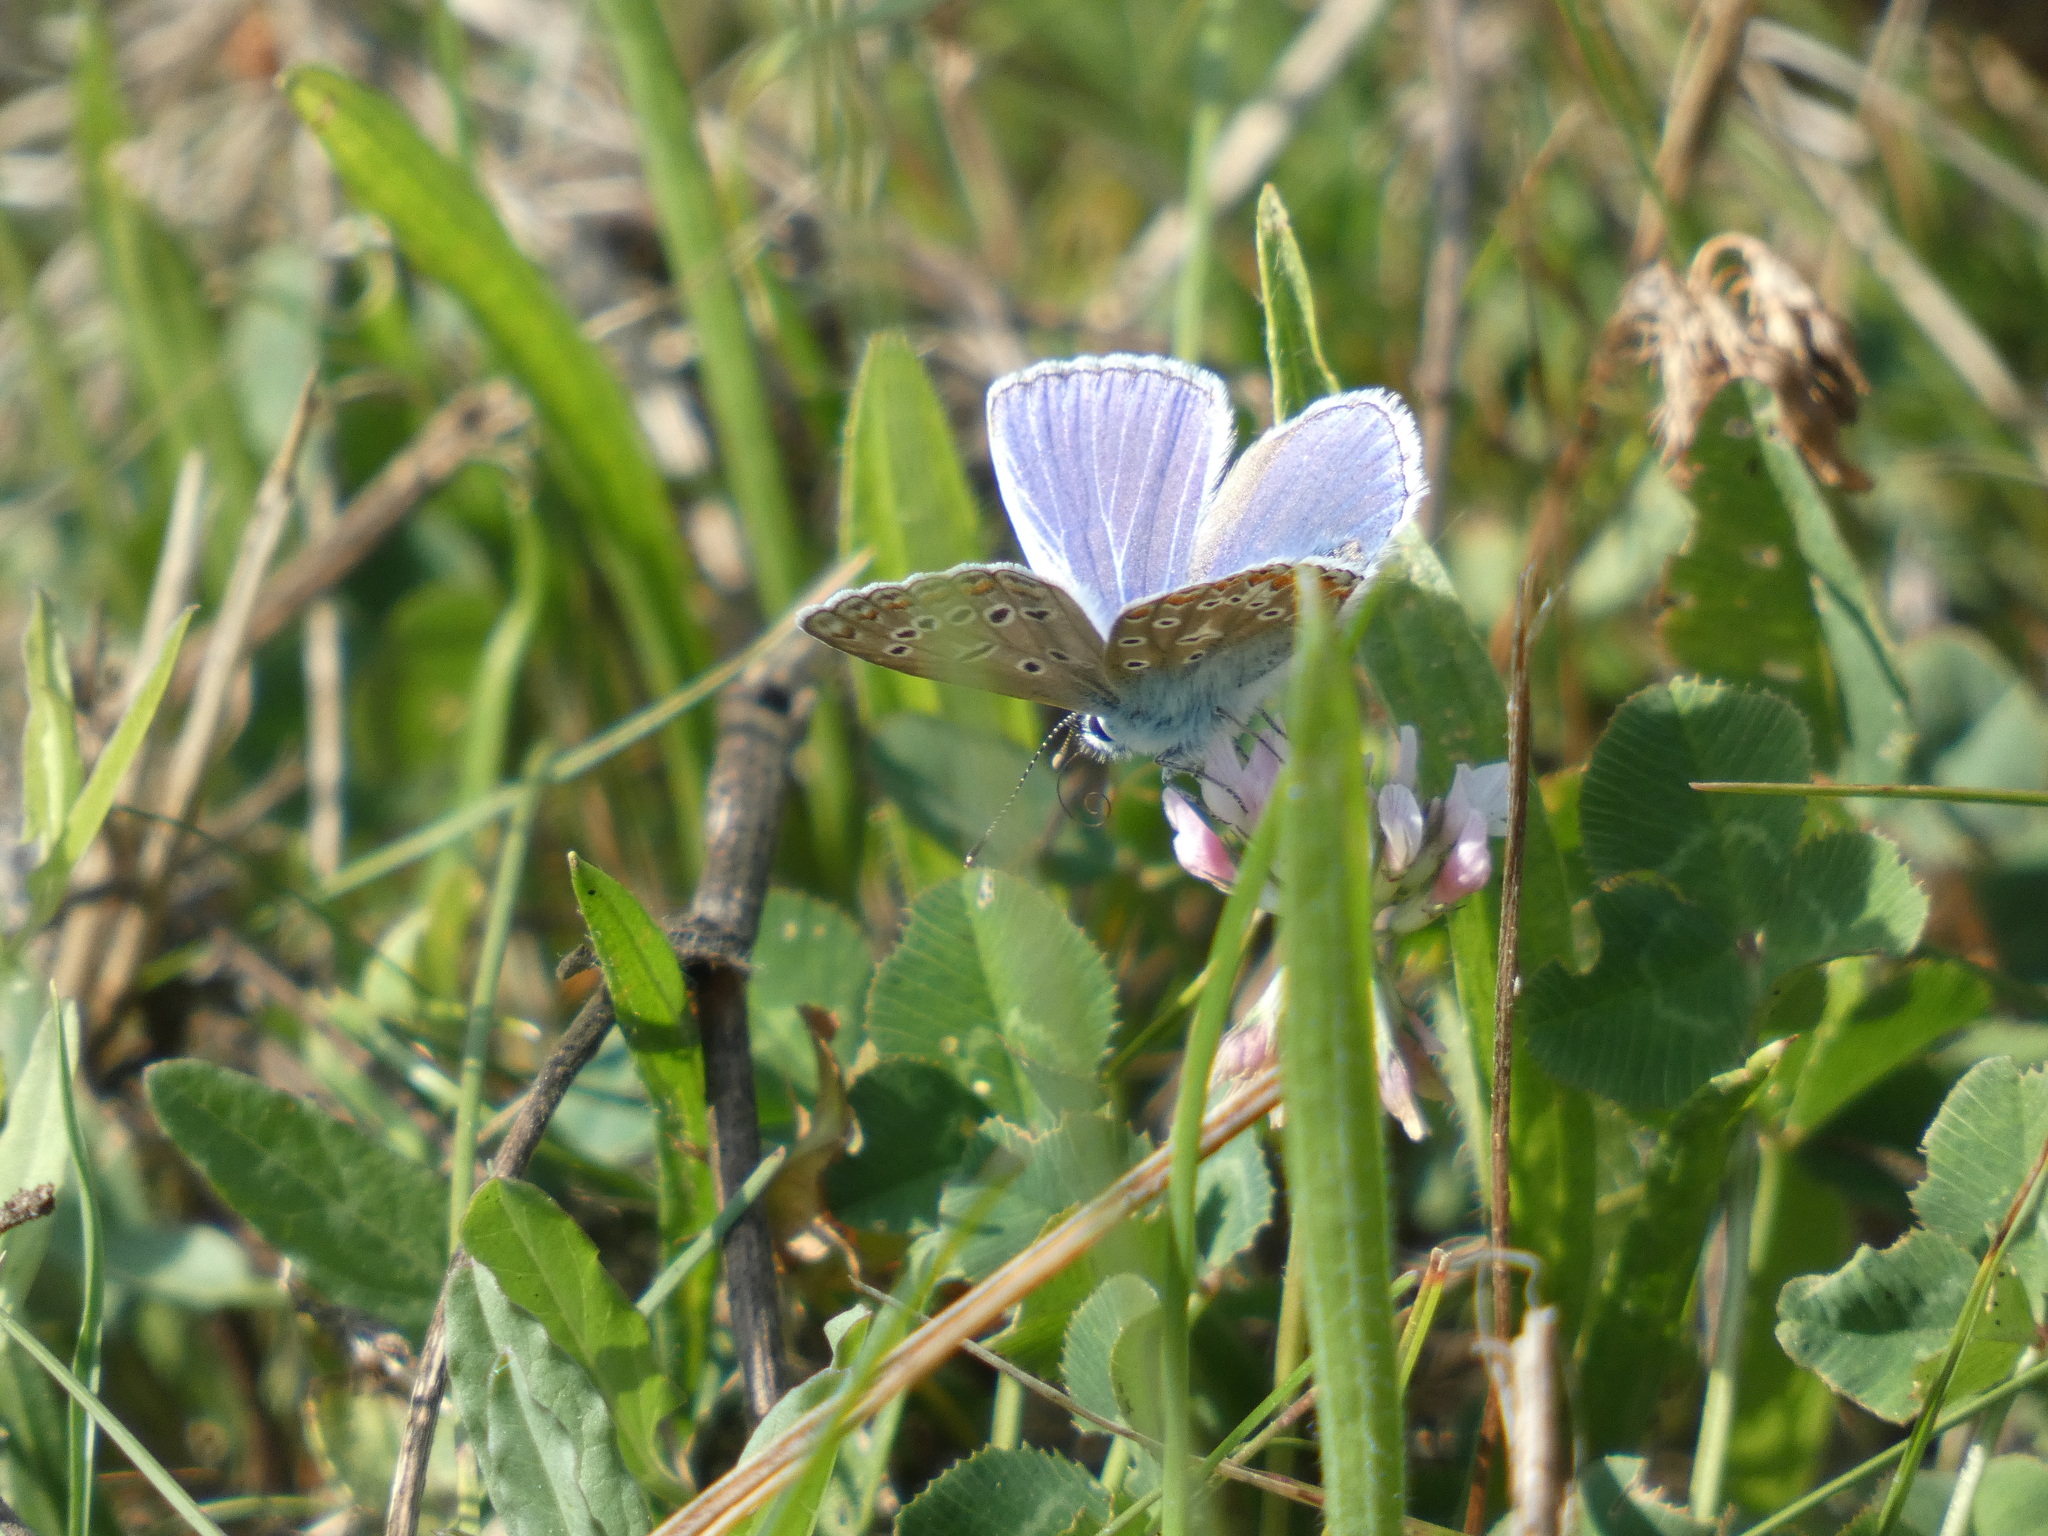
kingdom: Animalia
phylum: Arthropoda
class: Insecta
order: Lepidoptera
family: Lycaenidae
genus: Polyommatus
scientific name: Polyommatus icarus
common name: Common blue
